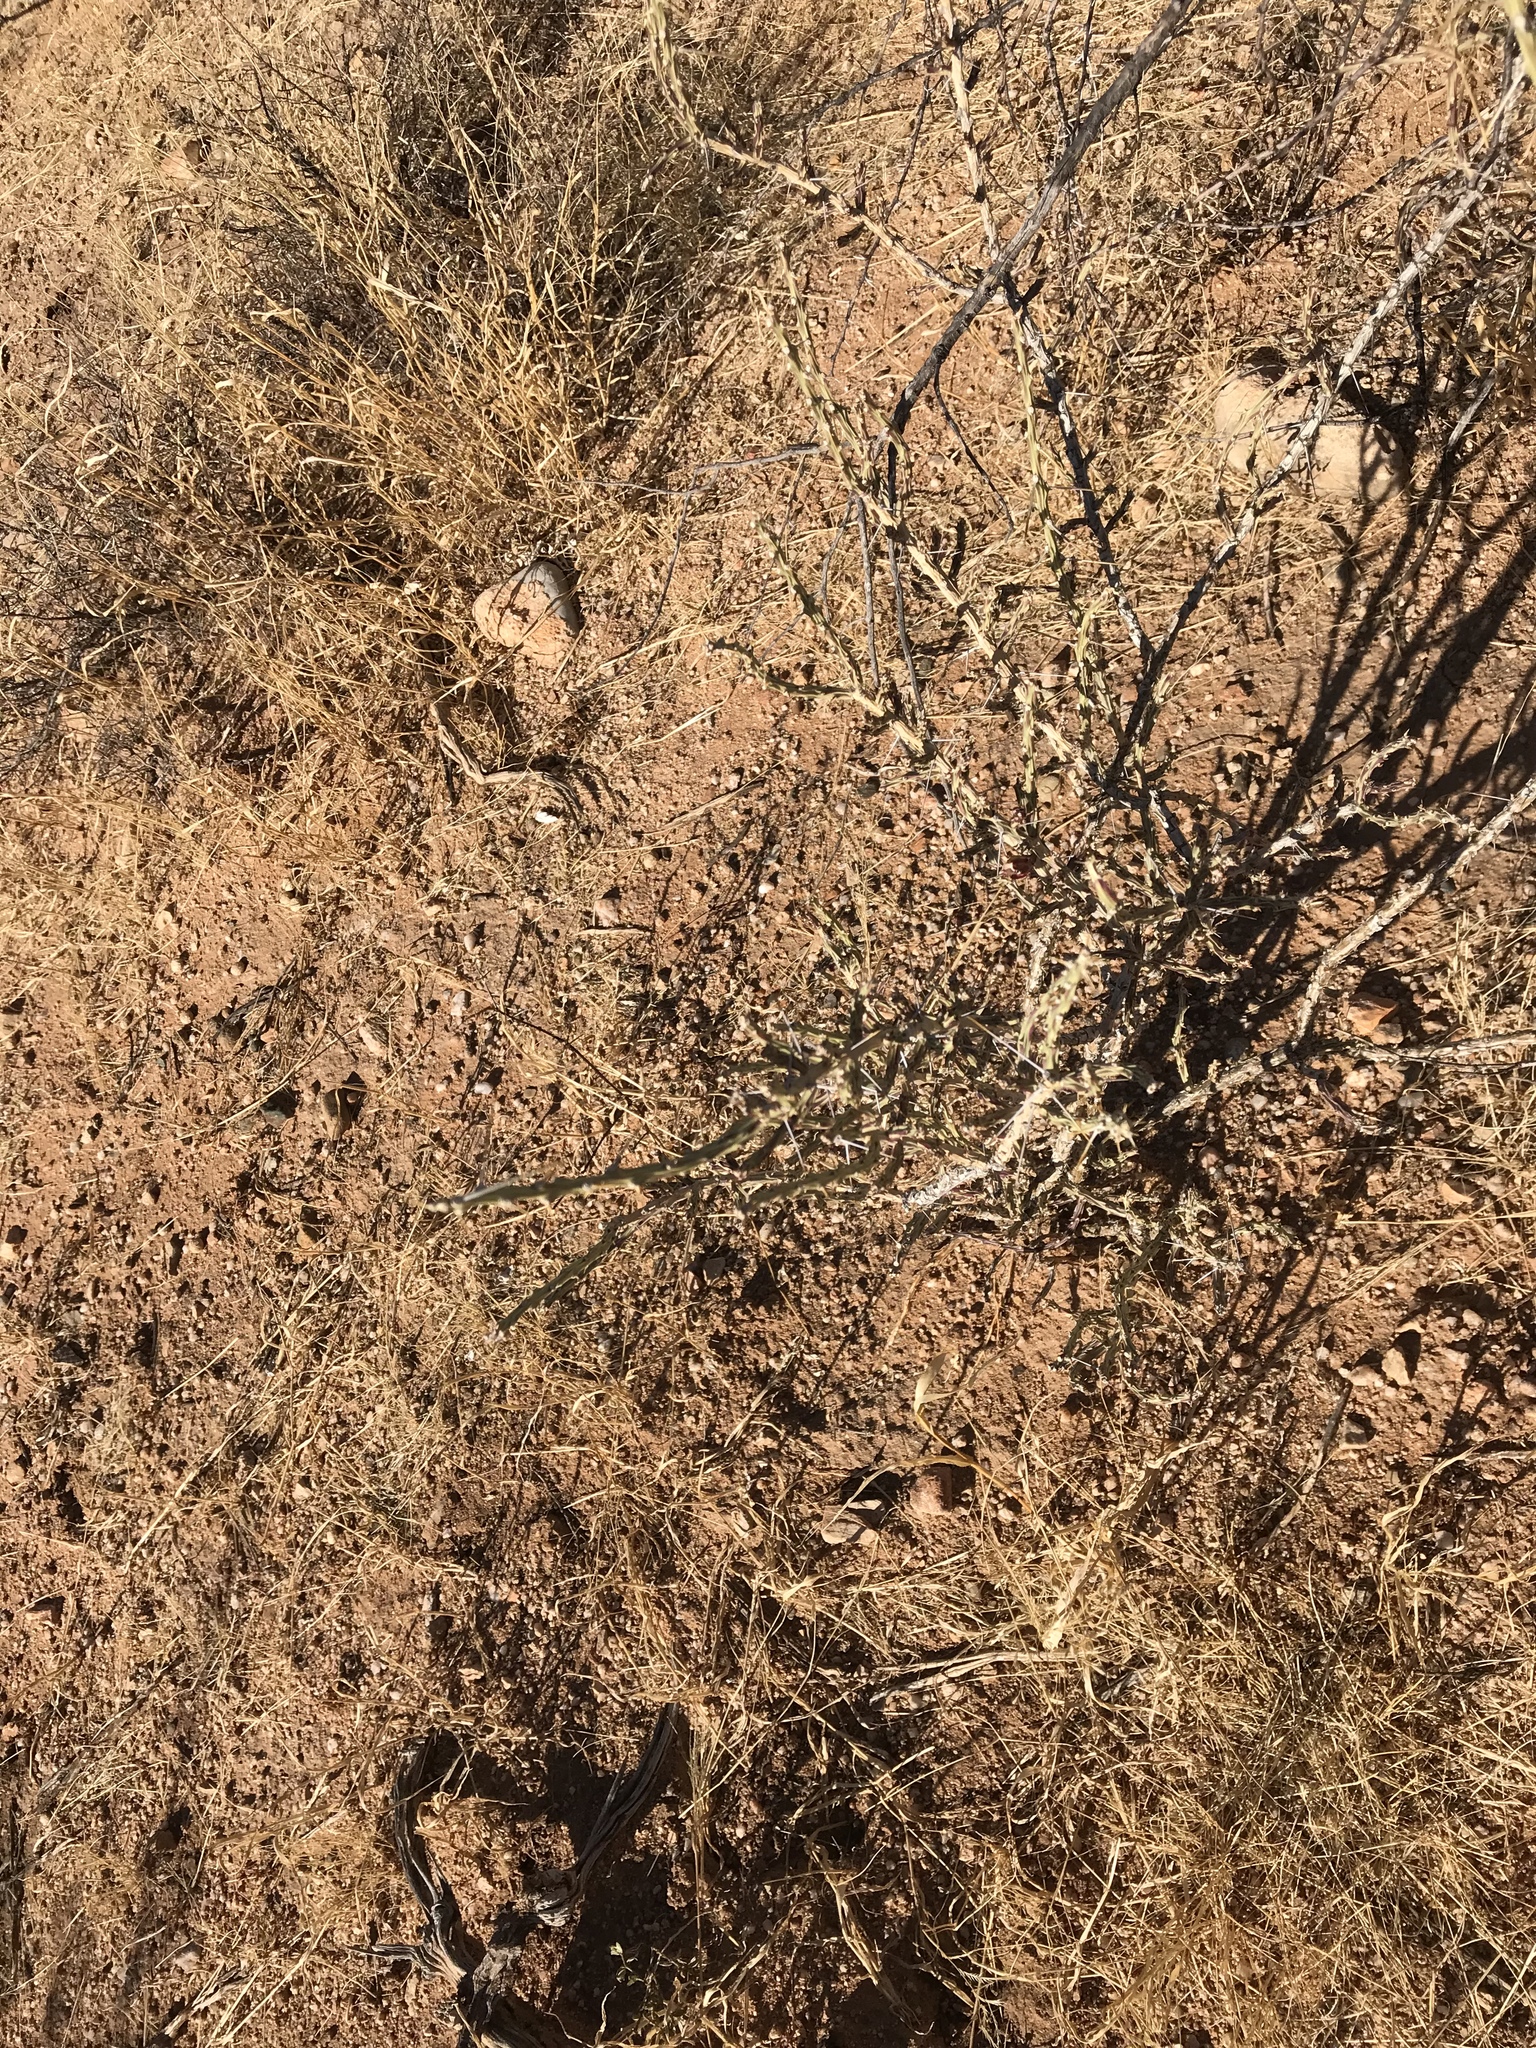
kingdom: Plantae
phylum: Tracheophyta
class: Magnoliopsida
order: Caryophyllales
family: Cactaceae
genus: Cylindropuntia
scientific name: Cylindropuntia leptocaulis
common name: Christmas cactus
